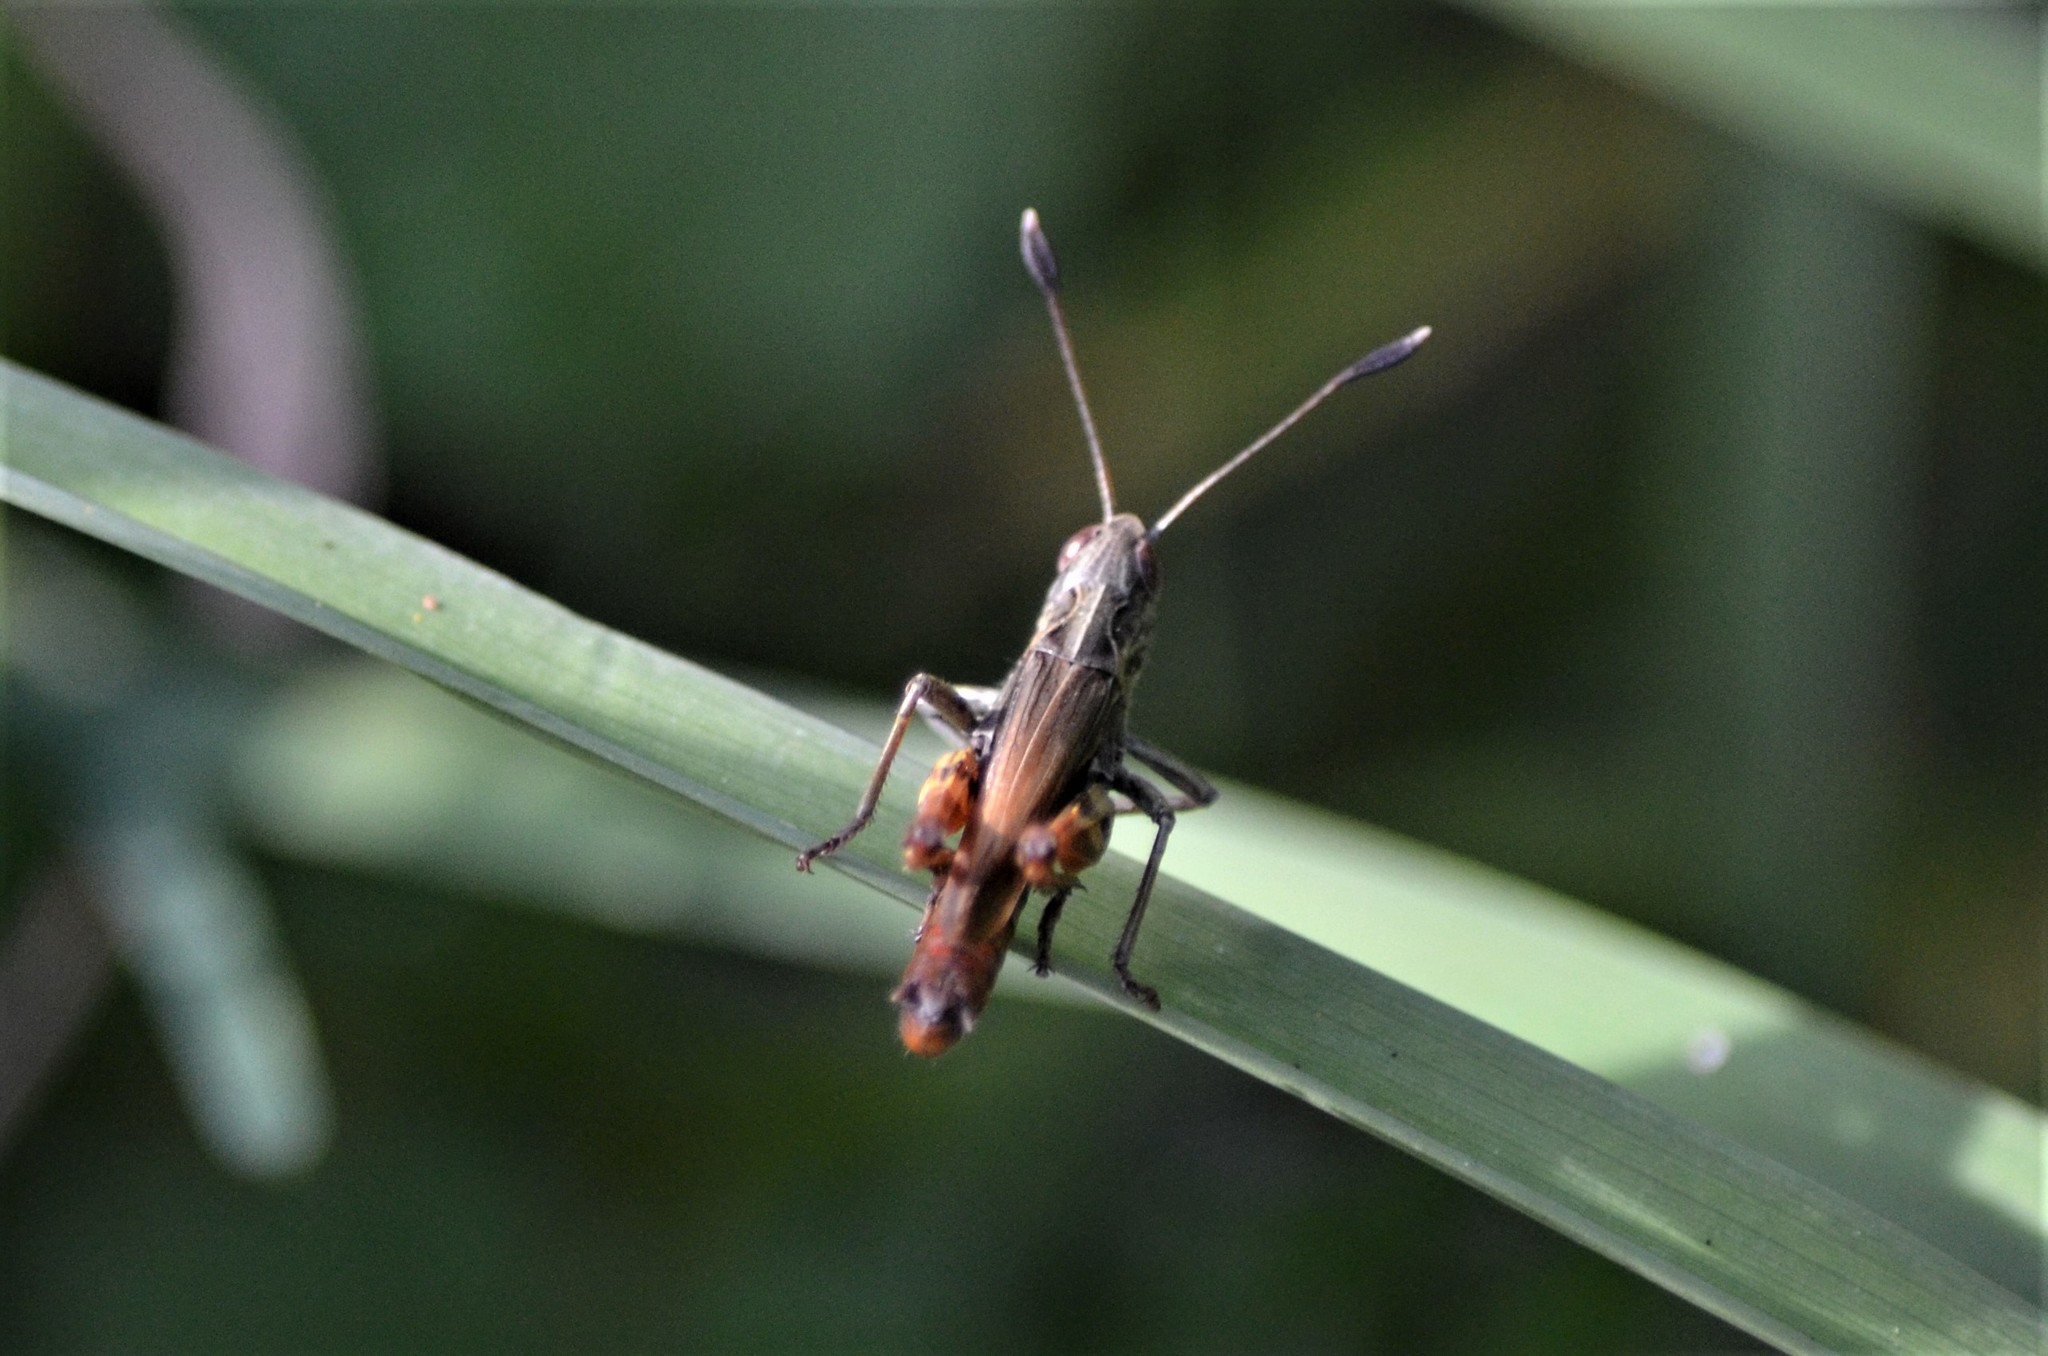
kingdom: Animalia
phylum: Arthropoda
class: Insecta
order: Orthoptera
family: Acrididae
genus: Gomphocerippus
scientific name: Gomphocerippus rufus
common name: Rufous grasshopper
